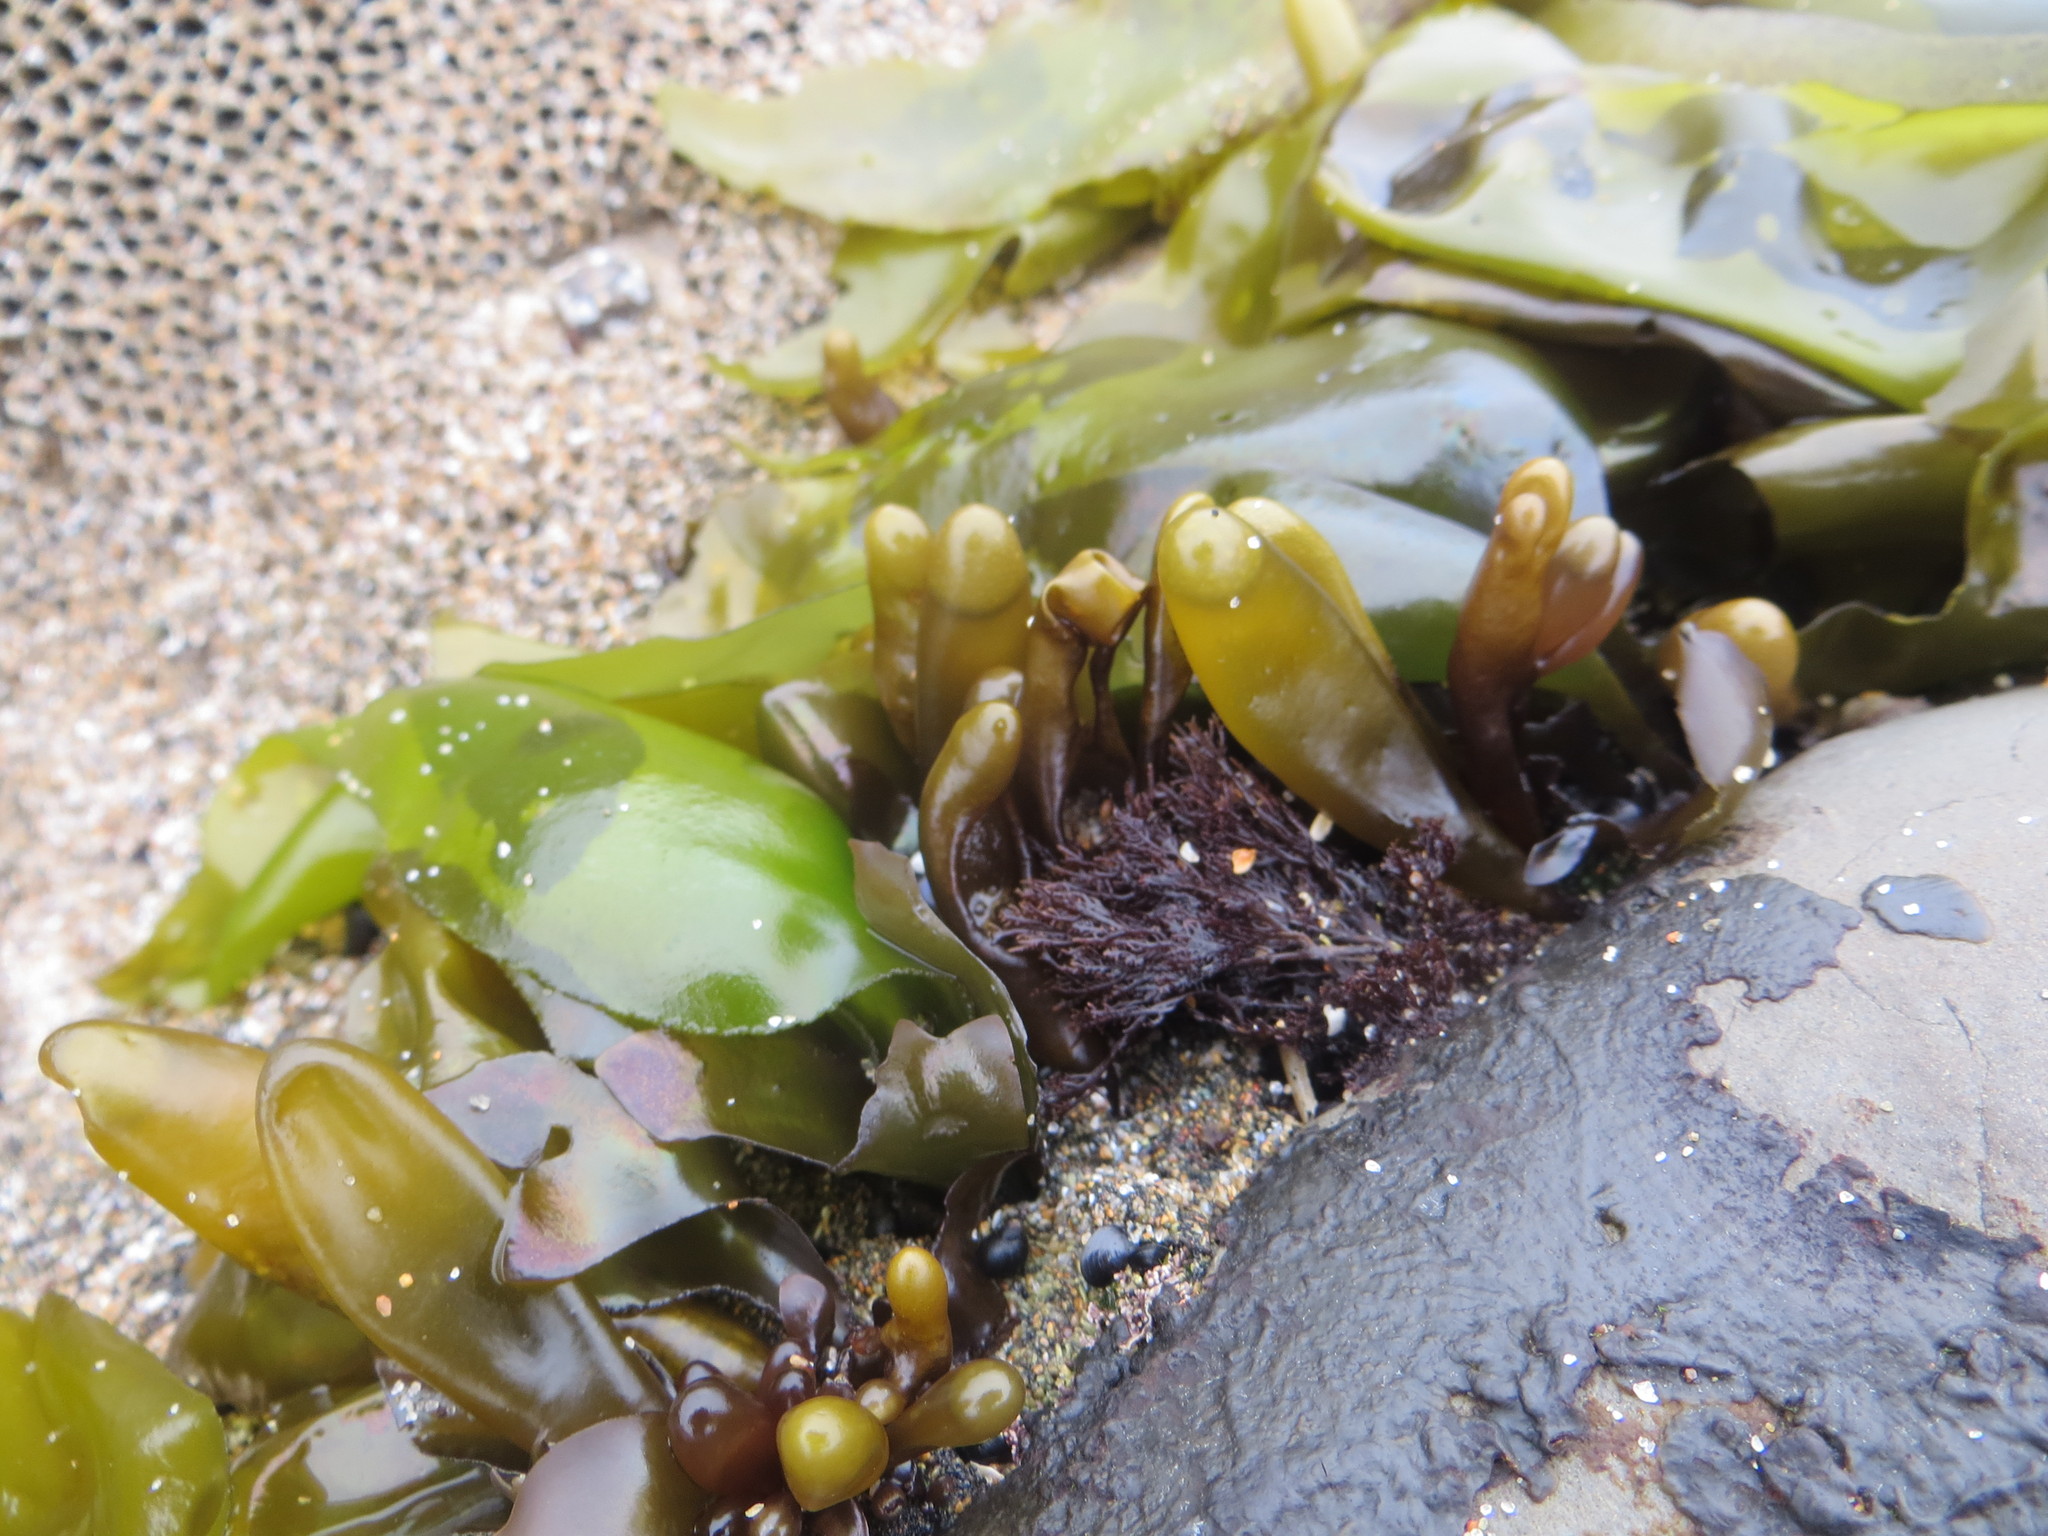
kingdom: Plantae
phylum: Rhodophyta
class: Florideophyceae
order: Palmariales
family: Palmariaceae
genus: Halosaccion
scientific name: Halosaccion glandiforme
